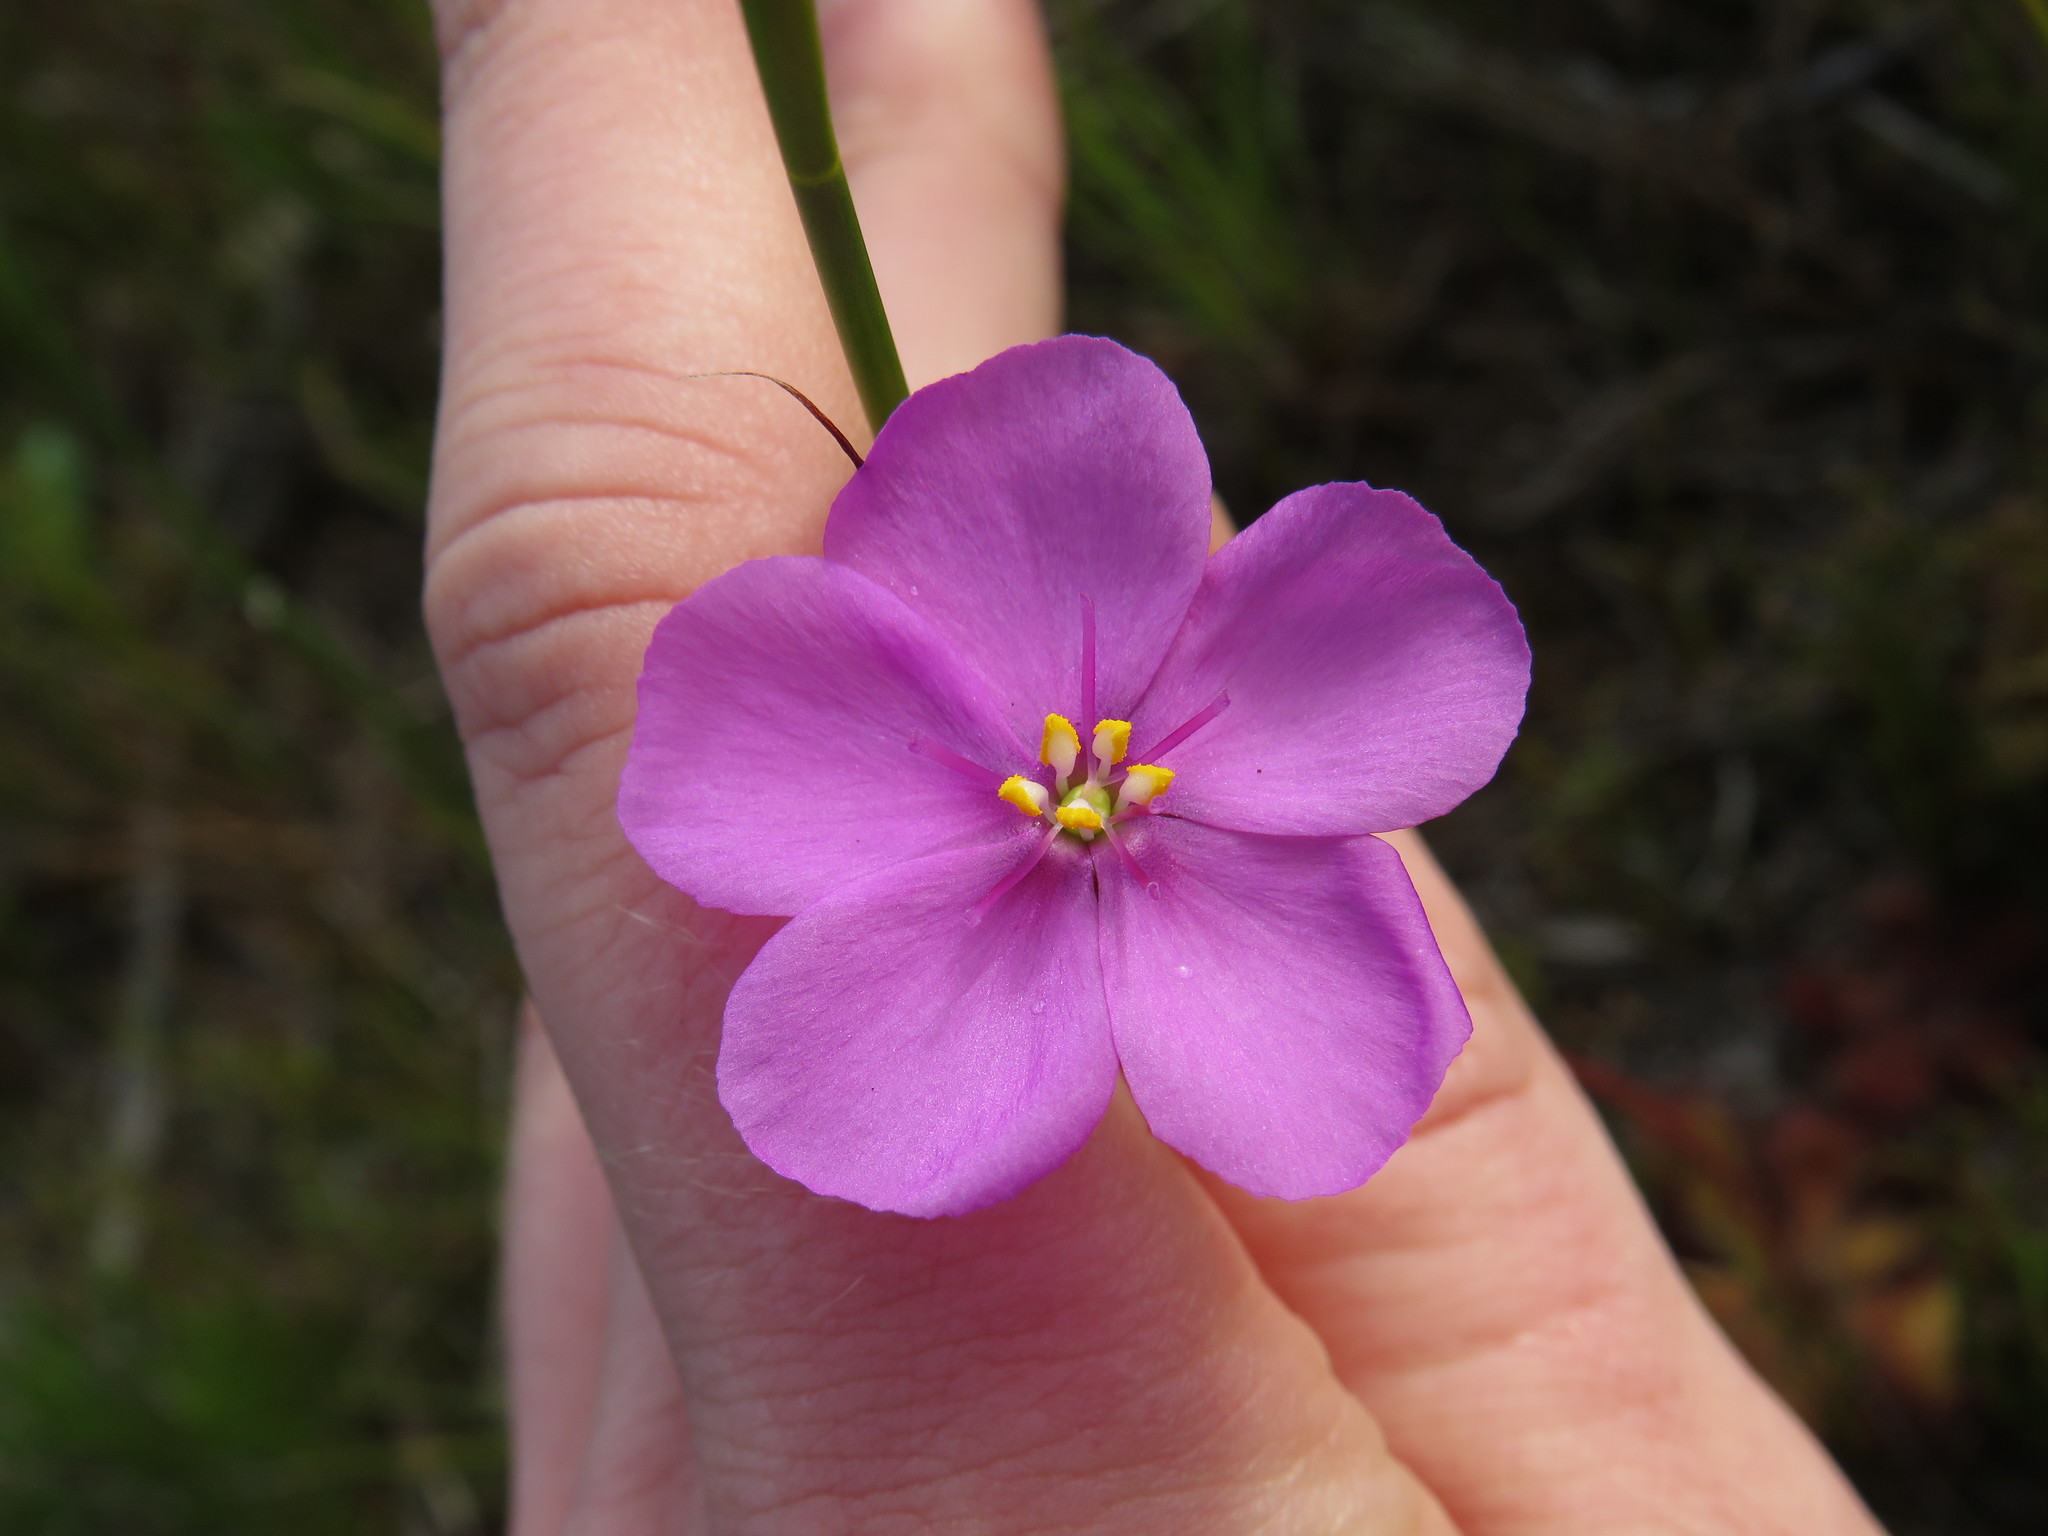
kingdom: Plantae
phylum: Tracheophyta
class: Magnoliopsida
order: Caryophyllales
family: Droseraceae
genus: Drosera
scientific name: Drosera cuneifolia
